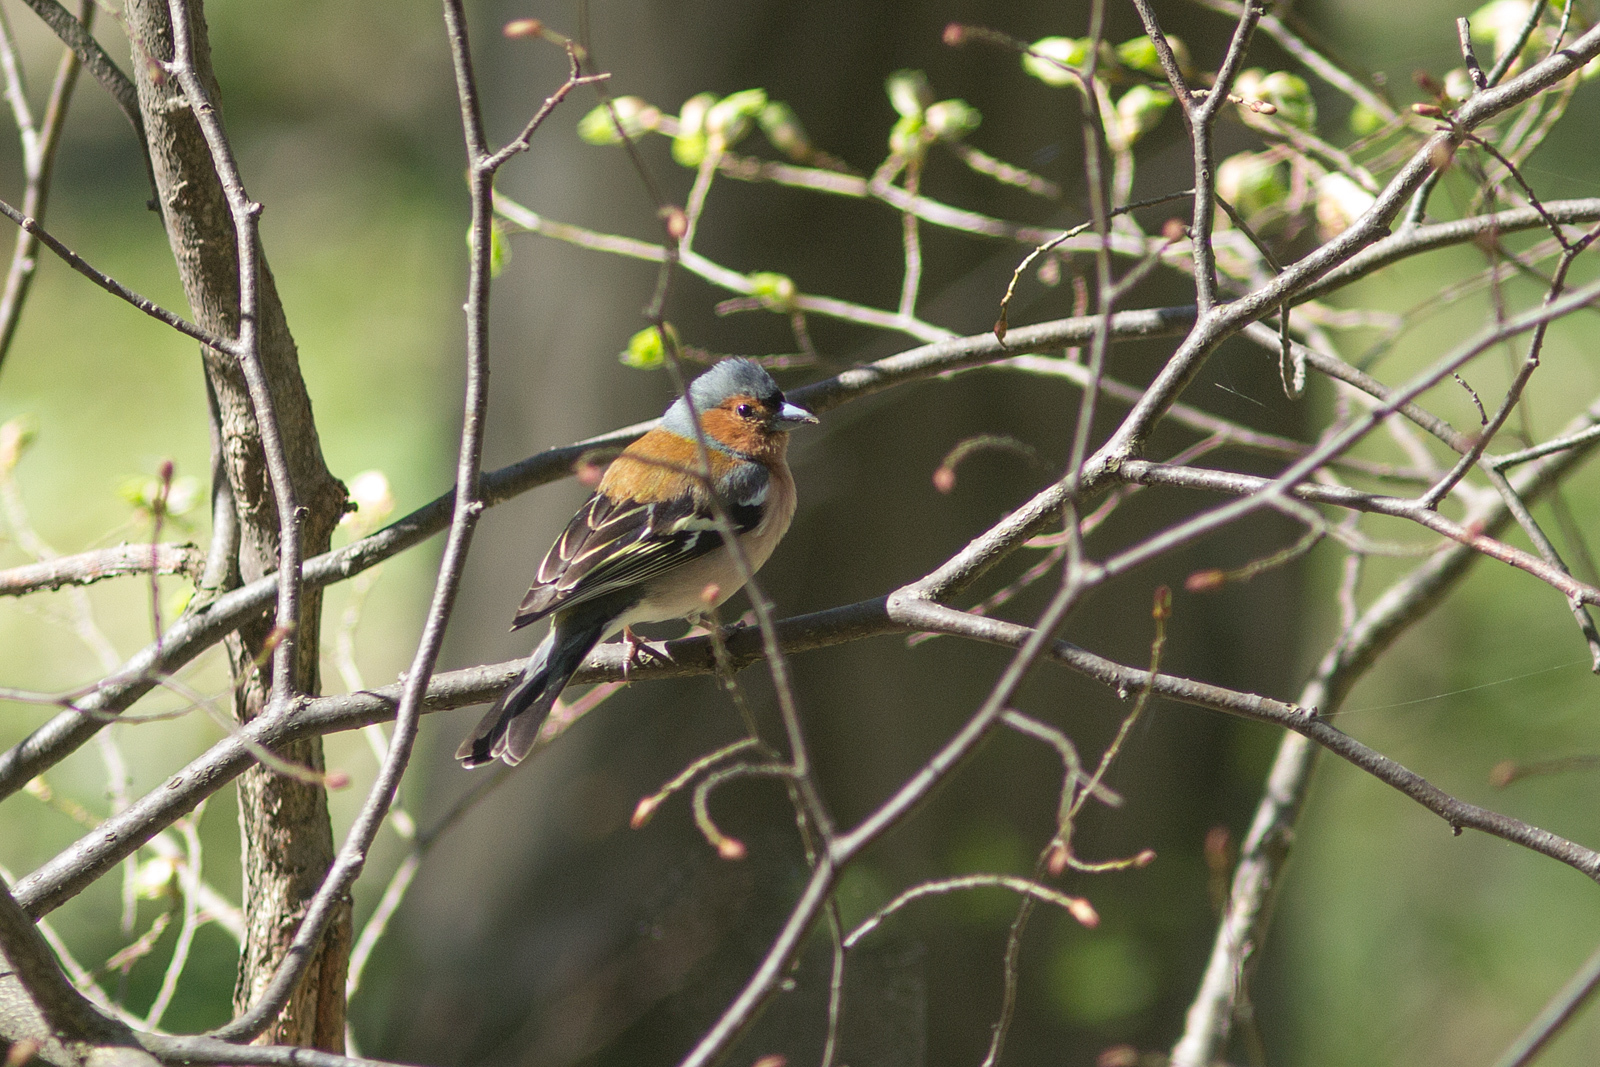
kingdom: Animalia
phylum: Chordata
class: Aves
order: Passeriformes
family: Fringillidae
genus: Fringilla
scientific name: Fringilla coelebs
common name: Common chaffinch
